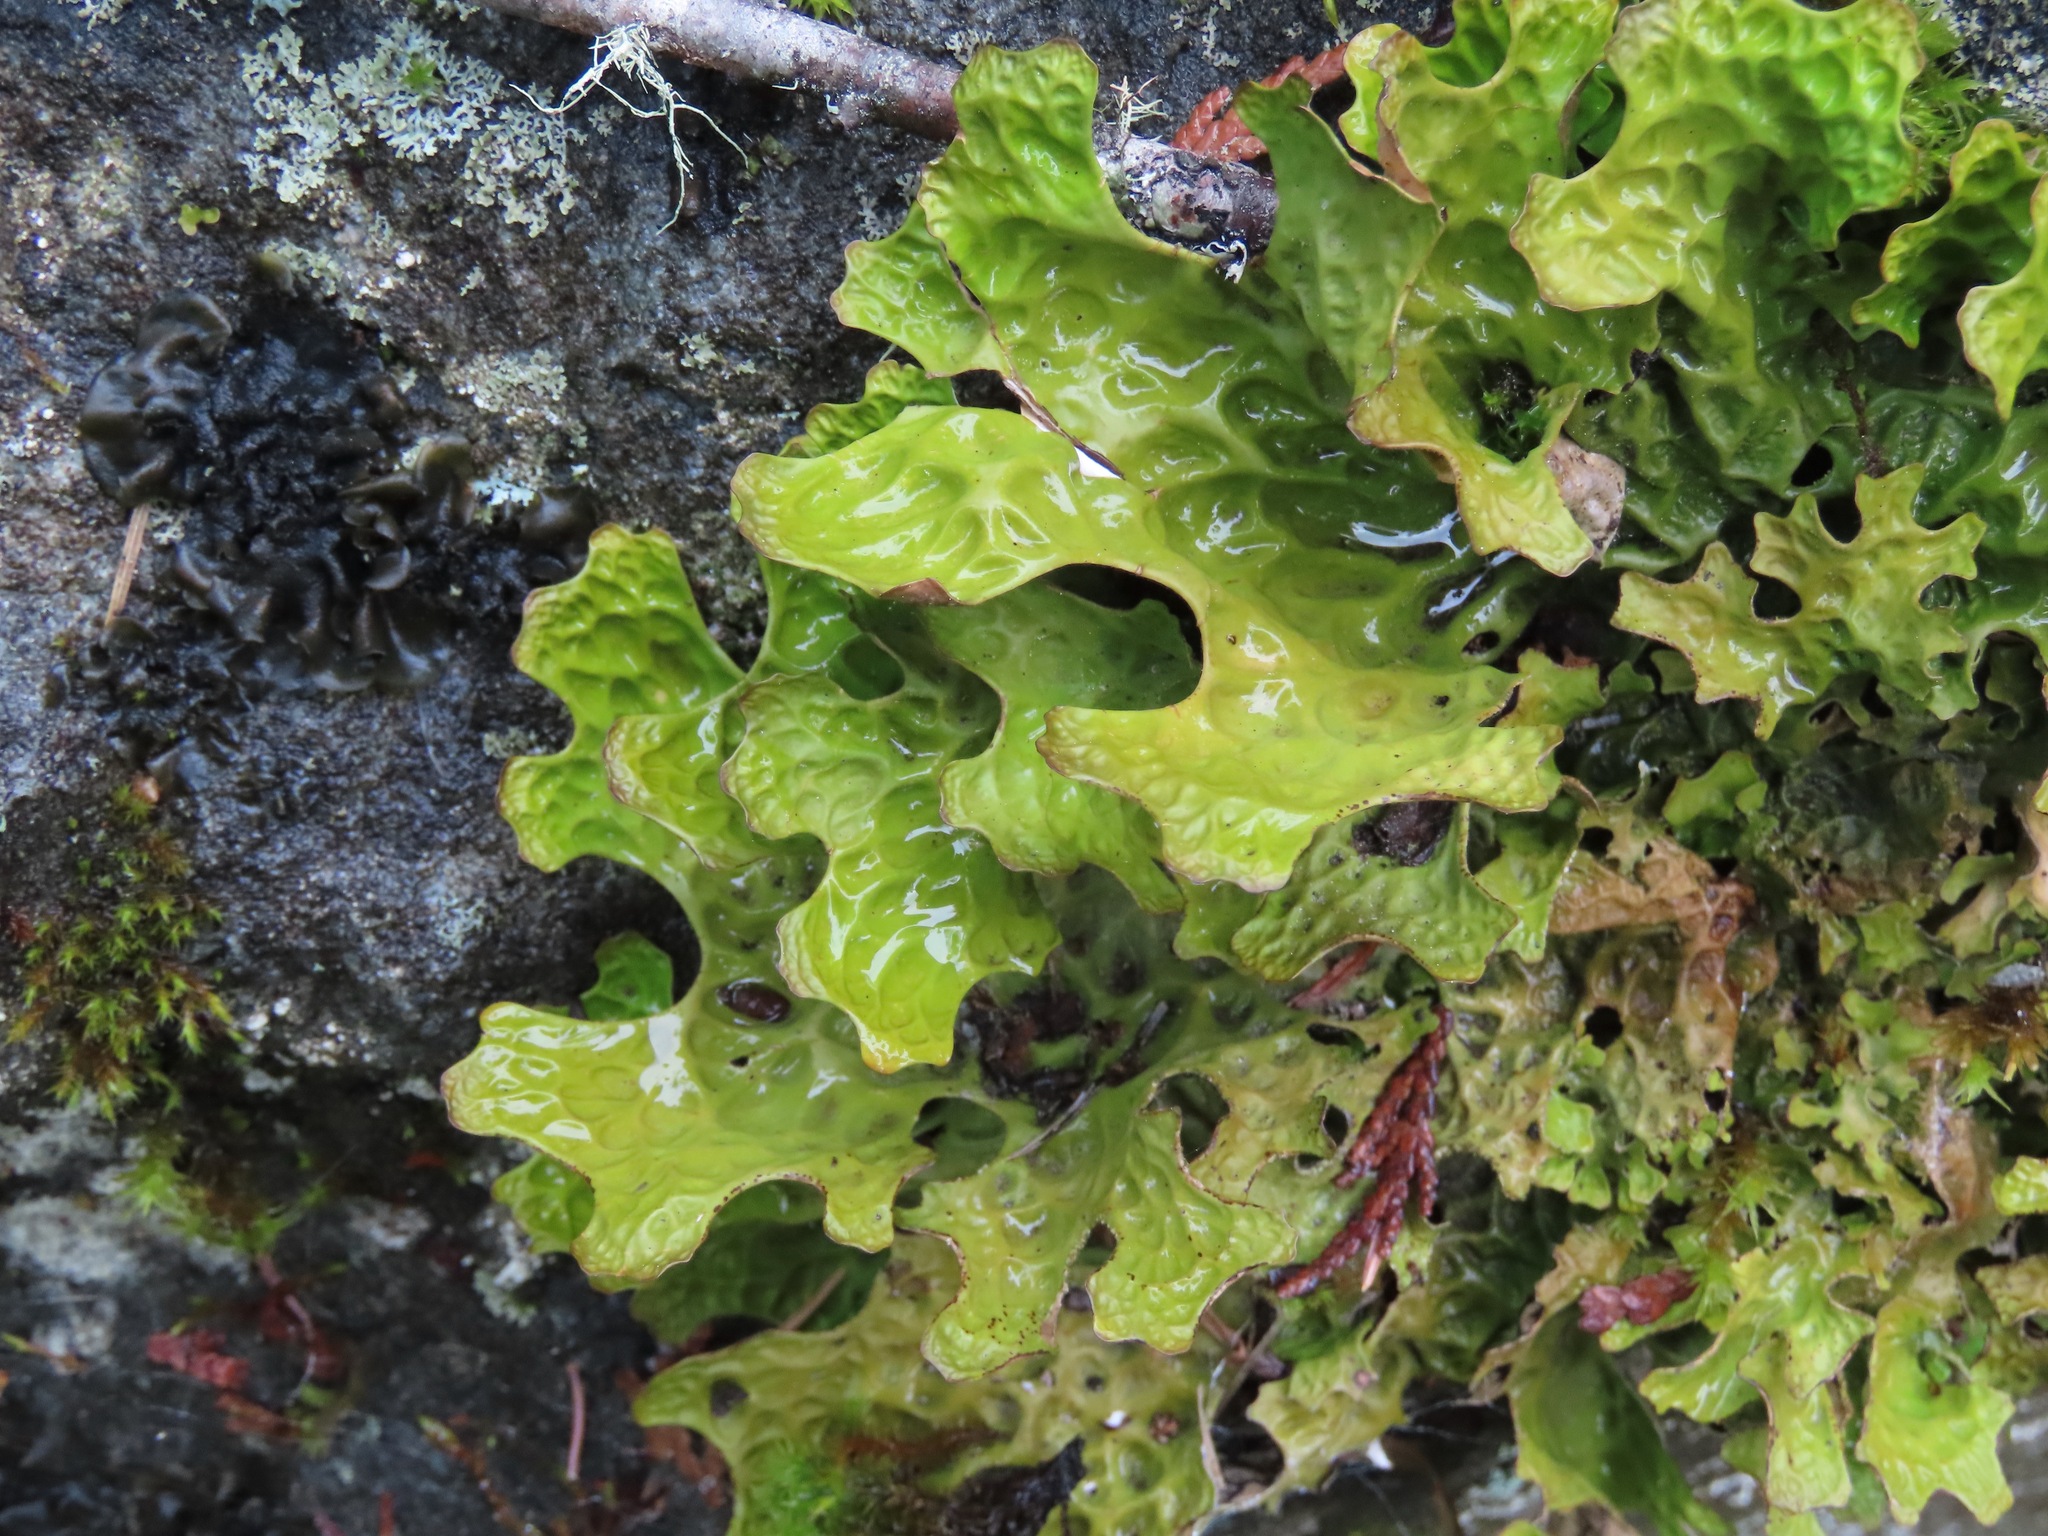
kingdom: Fungi
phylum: Ascomycota
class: Lecanoromycetes
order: Peltigerales
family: Lobariaceae
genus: Lobaria
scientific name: Lobaria pulmonaria
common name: Lungwort
